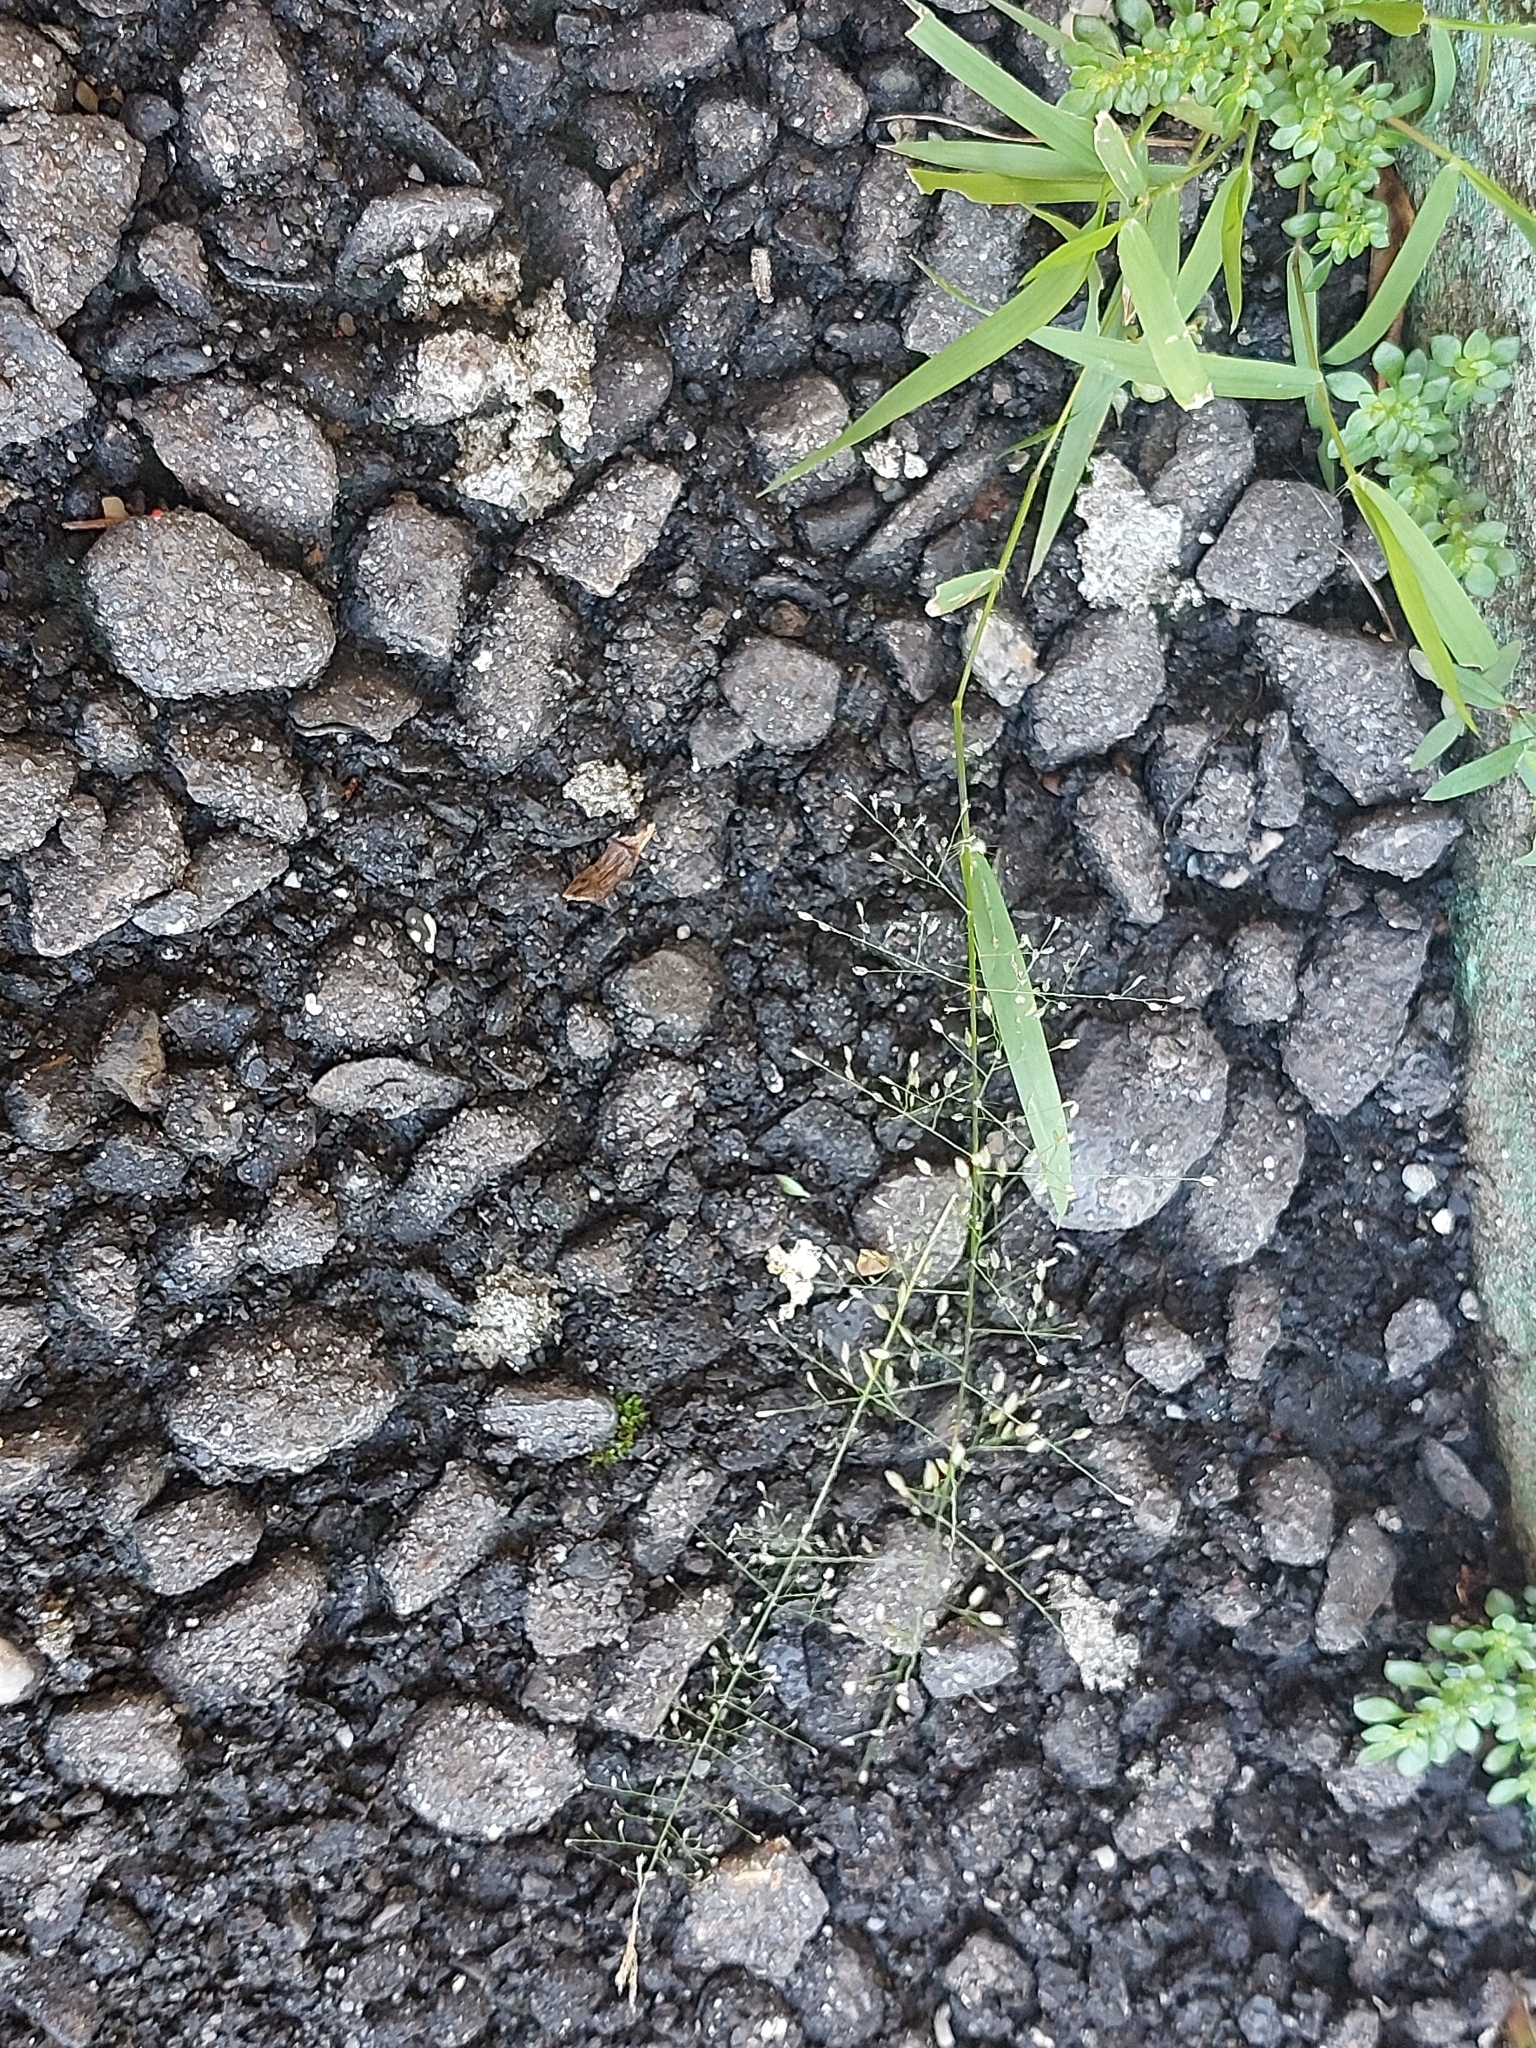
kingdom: Plantae
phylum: Tracheophyta
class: Liliopsida
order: Poales
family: Poaceae
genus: Eragrostis
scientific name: Eragrostis tenella
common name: Japanese lovegrass
